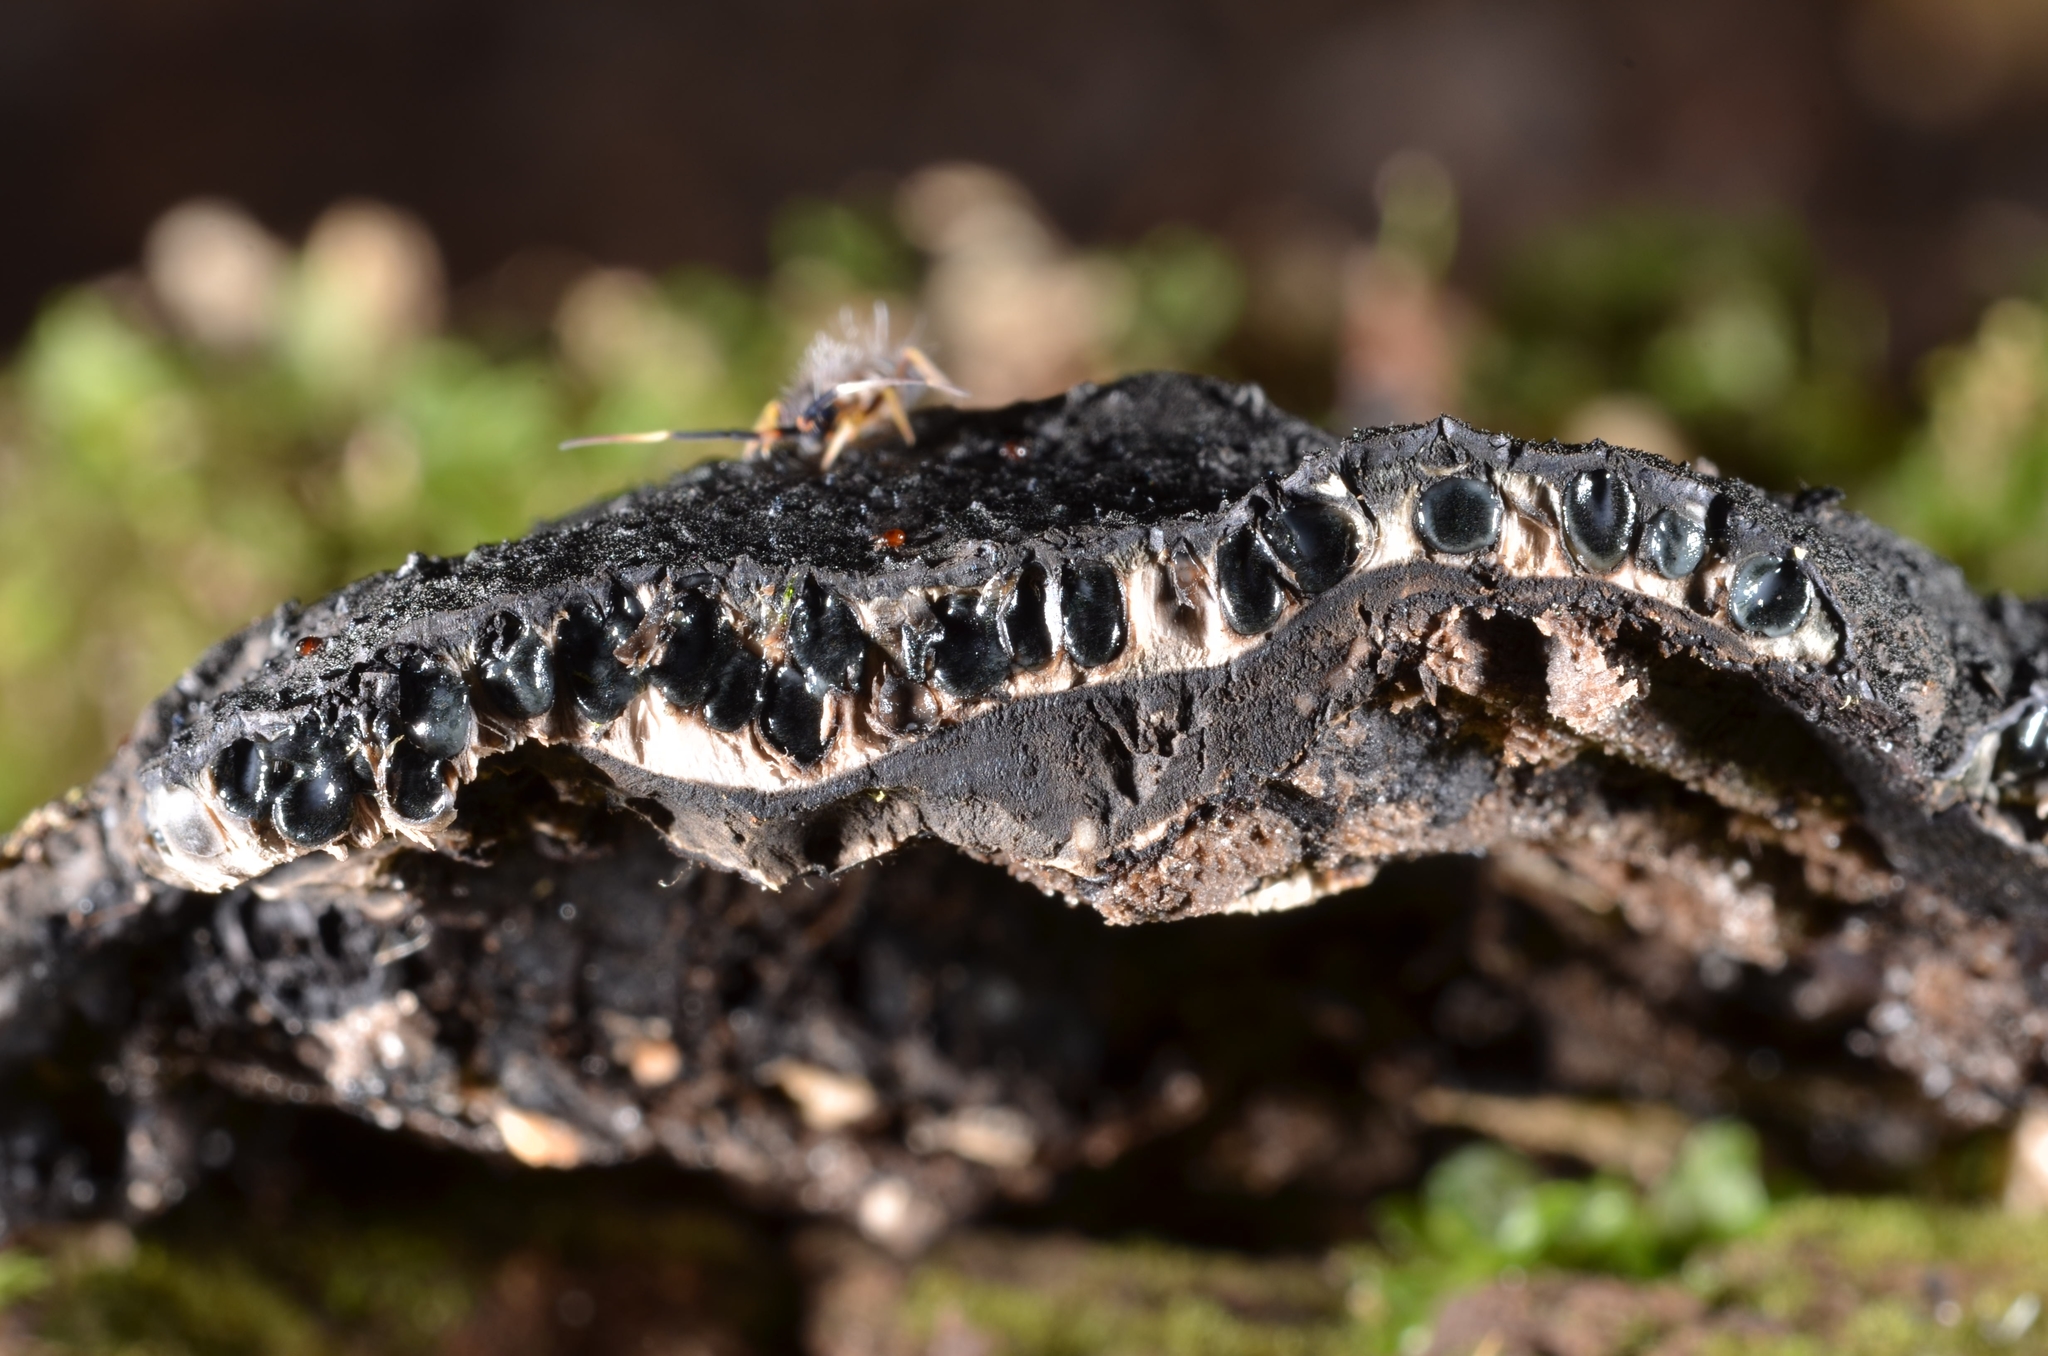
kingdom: Fungi
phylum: Ascomycota
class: Sordariomycetes
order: Xylariales
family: Xylariaceae
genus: Kretzschmaria
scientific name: Kretzschmaria deusta
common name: Brittle cinder
